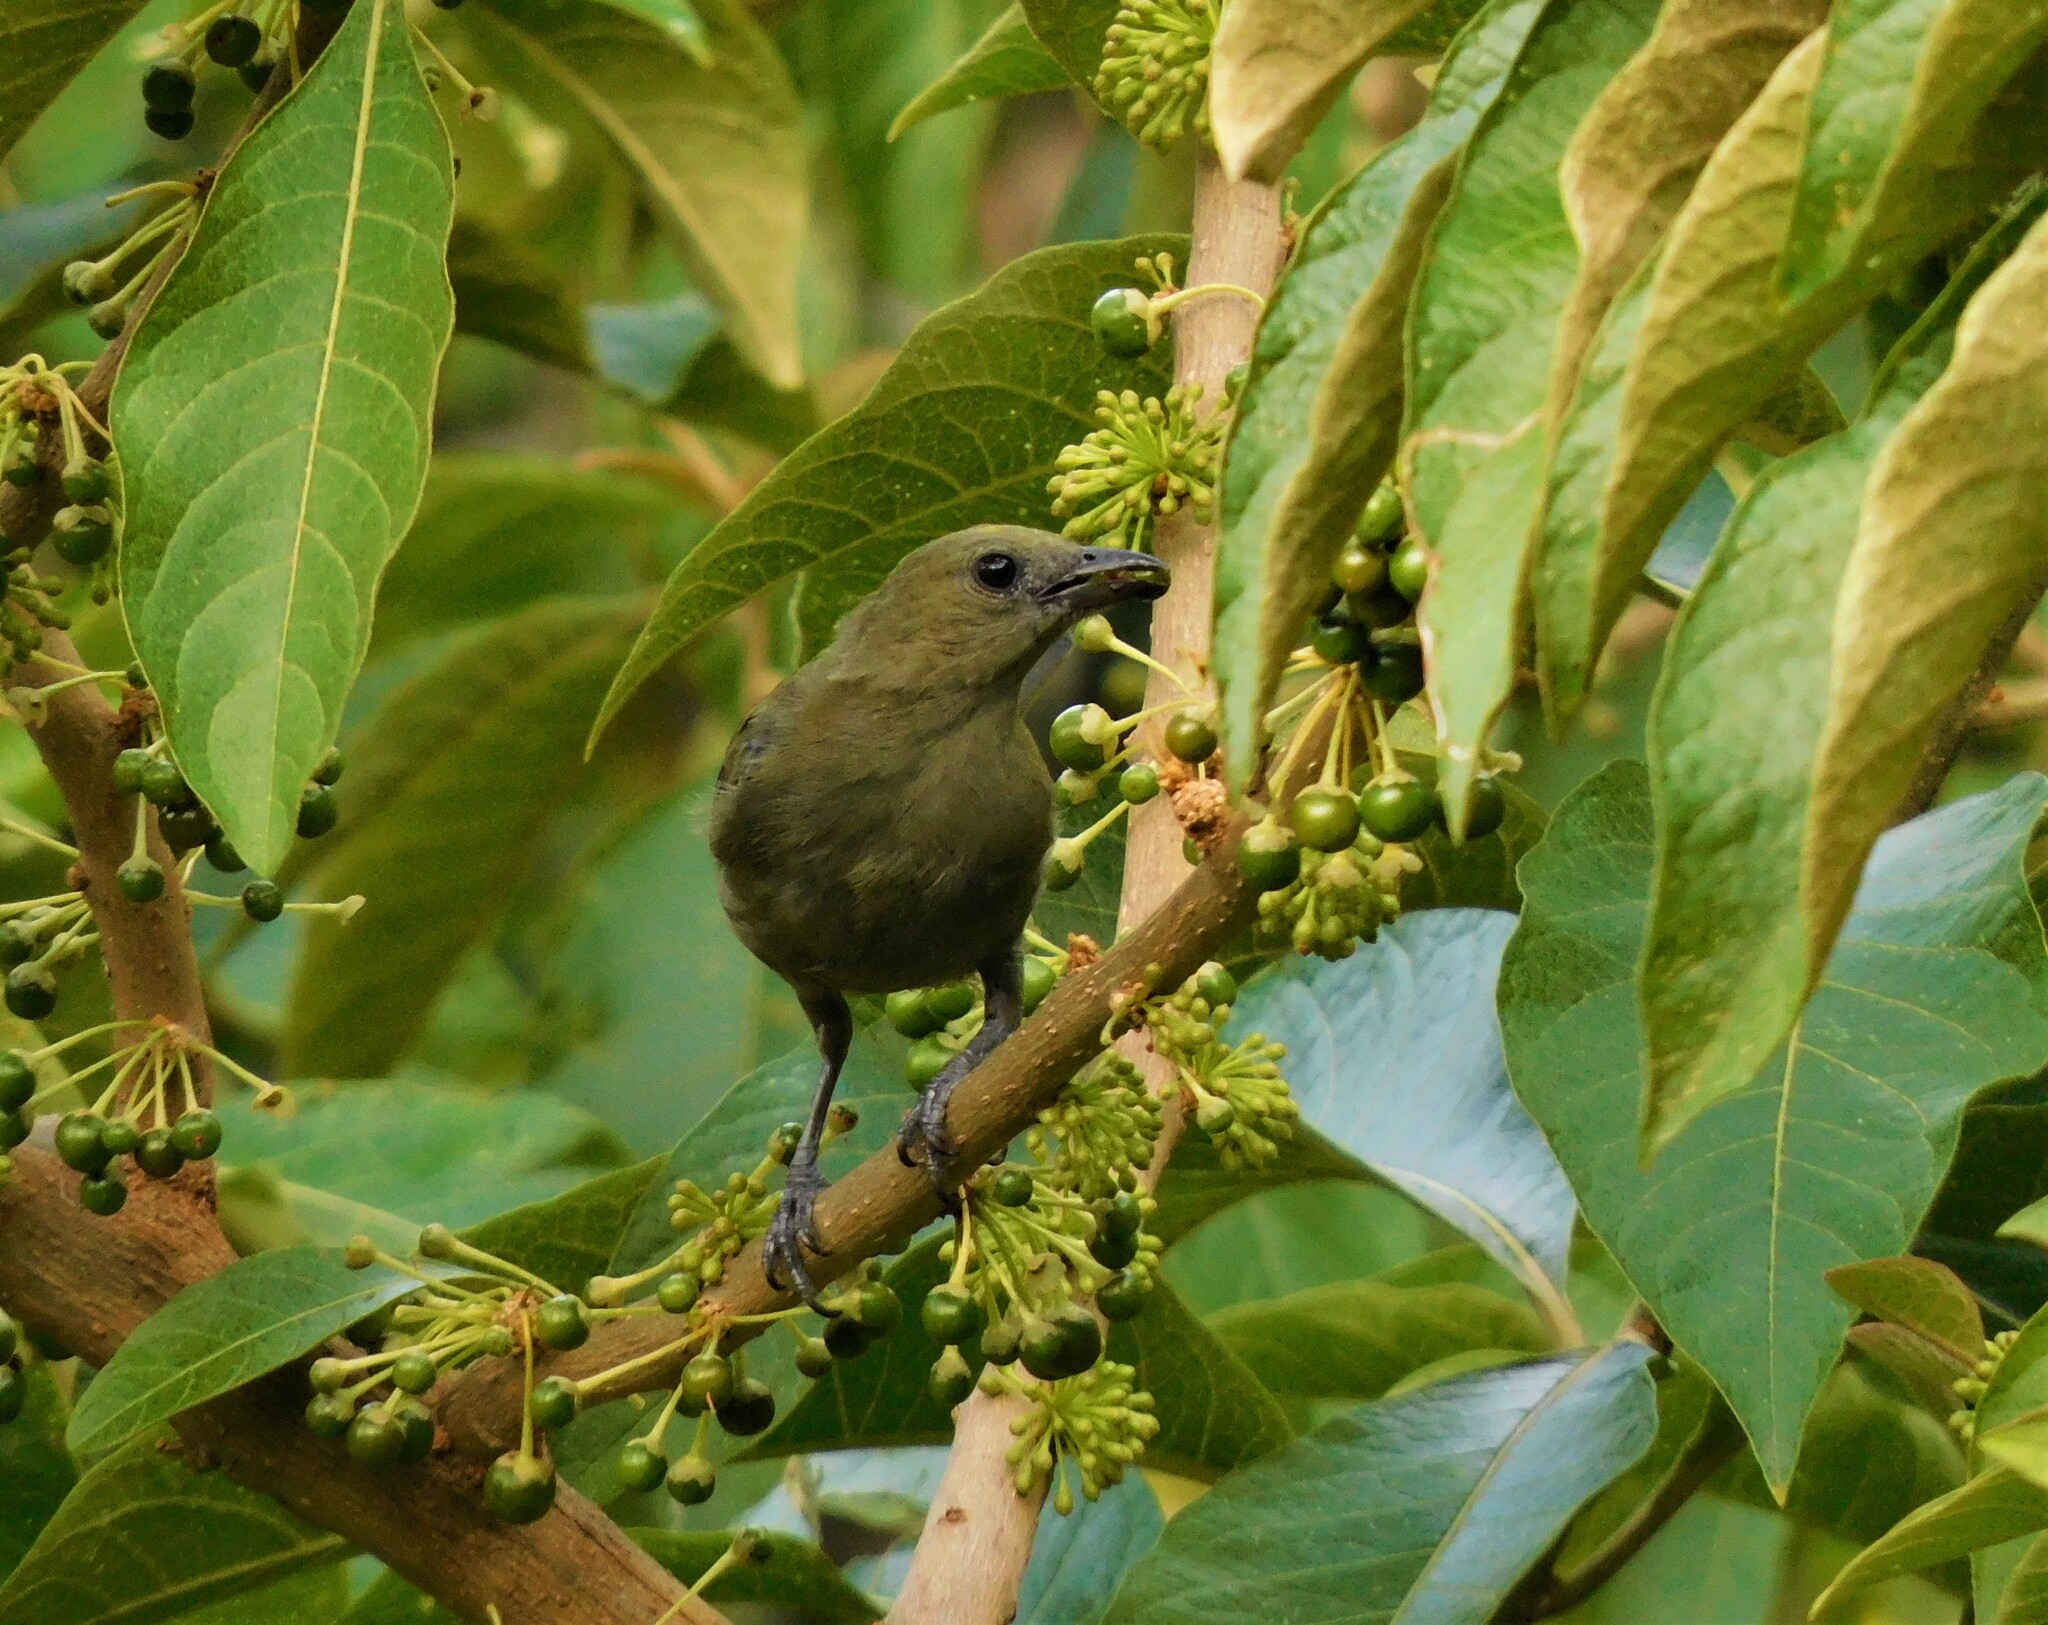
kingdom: Animalia
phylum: Chordata
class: Aves
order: Passeriformes
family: Thraupidae
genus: Thraupis
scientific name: Thraupis palmarum
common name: Palm tanager
